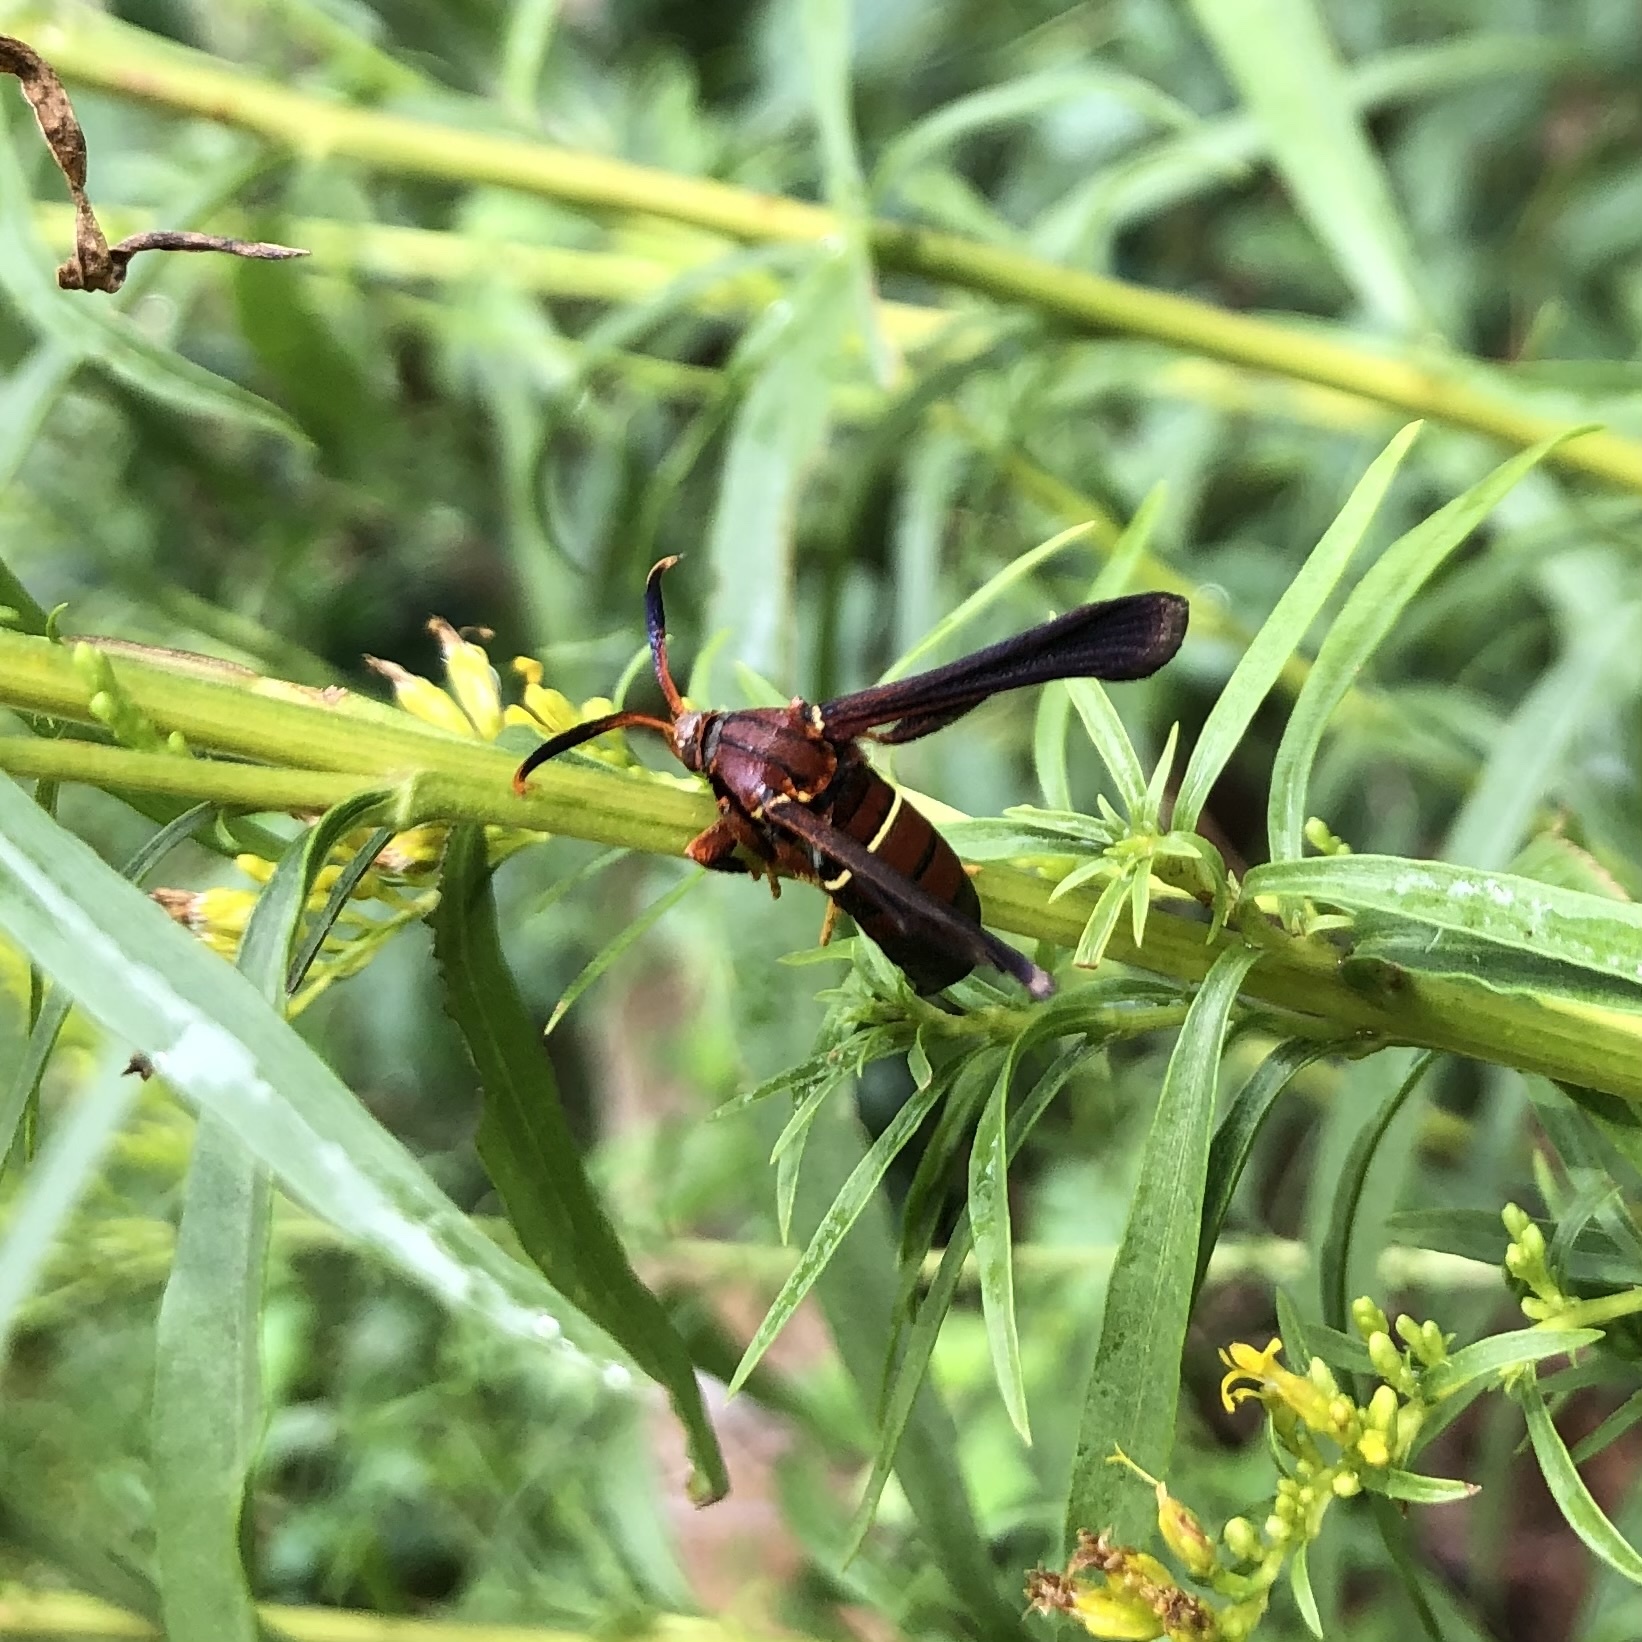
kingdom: Animalia
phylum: Arthropoda
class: Insecta
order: Lepidoptera
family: Sesiidae
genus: Vitacea
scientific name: Vitacea scepsiformis
